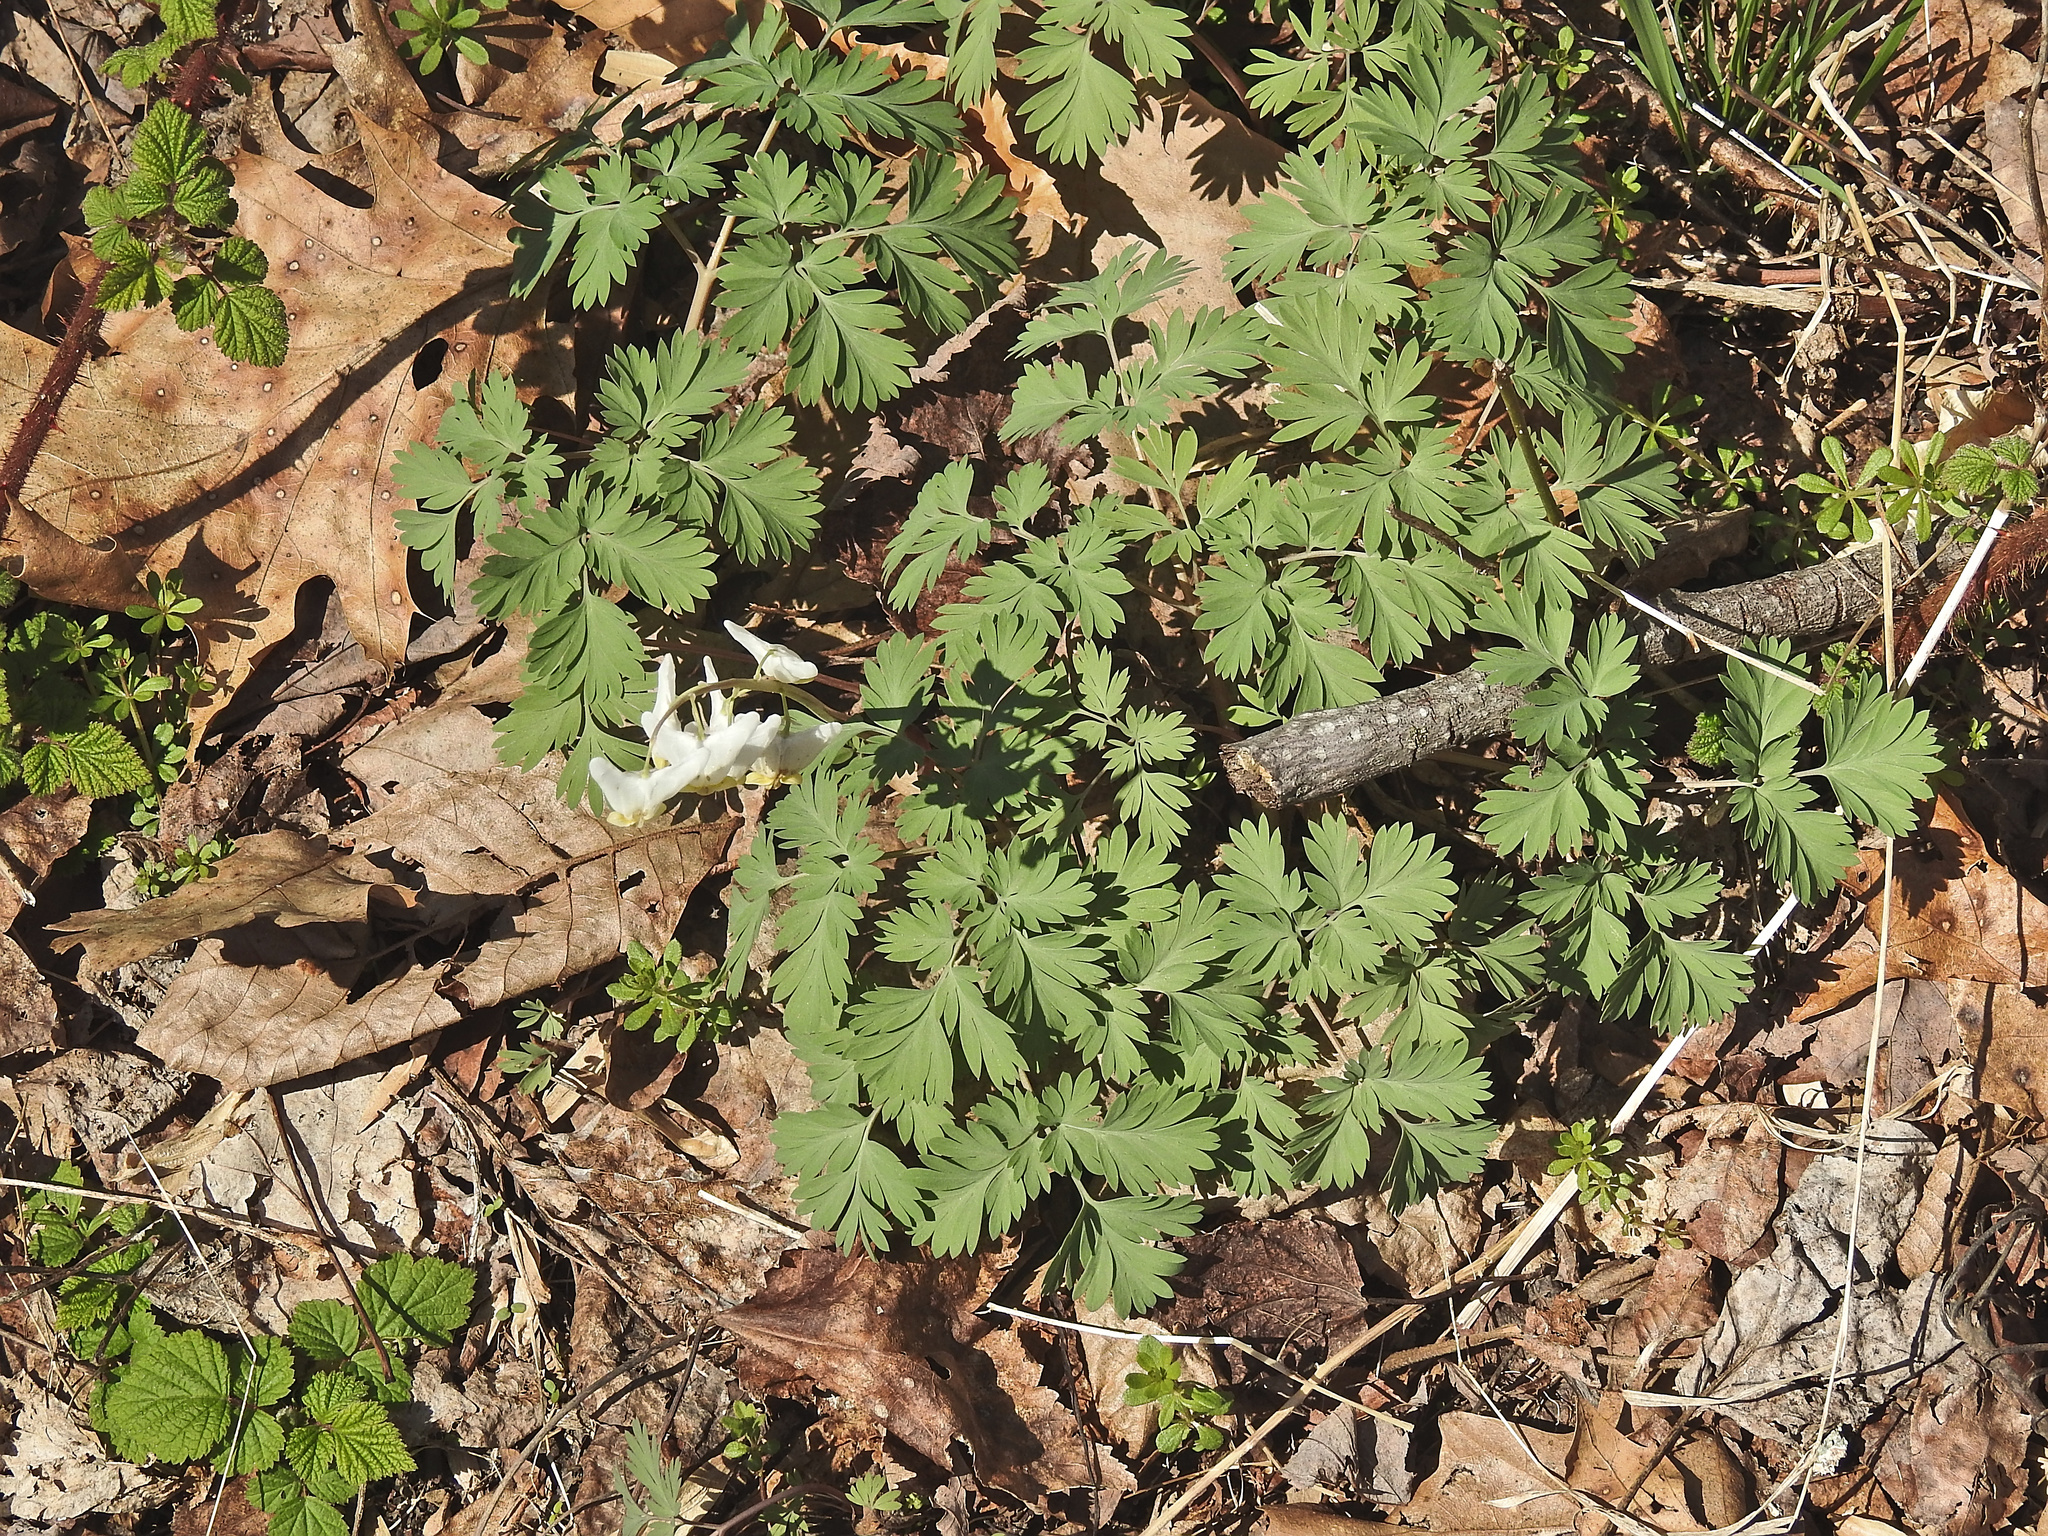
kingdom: Plantae
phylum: Tracheophyta
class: Magnoliopsida
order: Ranunculales
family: Papaveraceae
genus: Dicentra
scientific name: Dicentra cucullaria
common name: Dutchman's breeches
